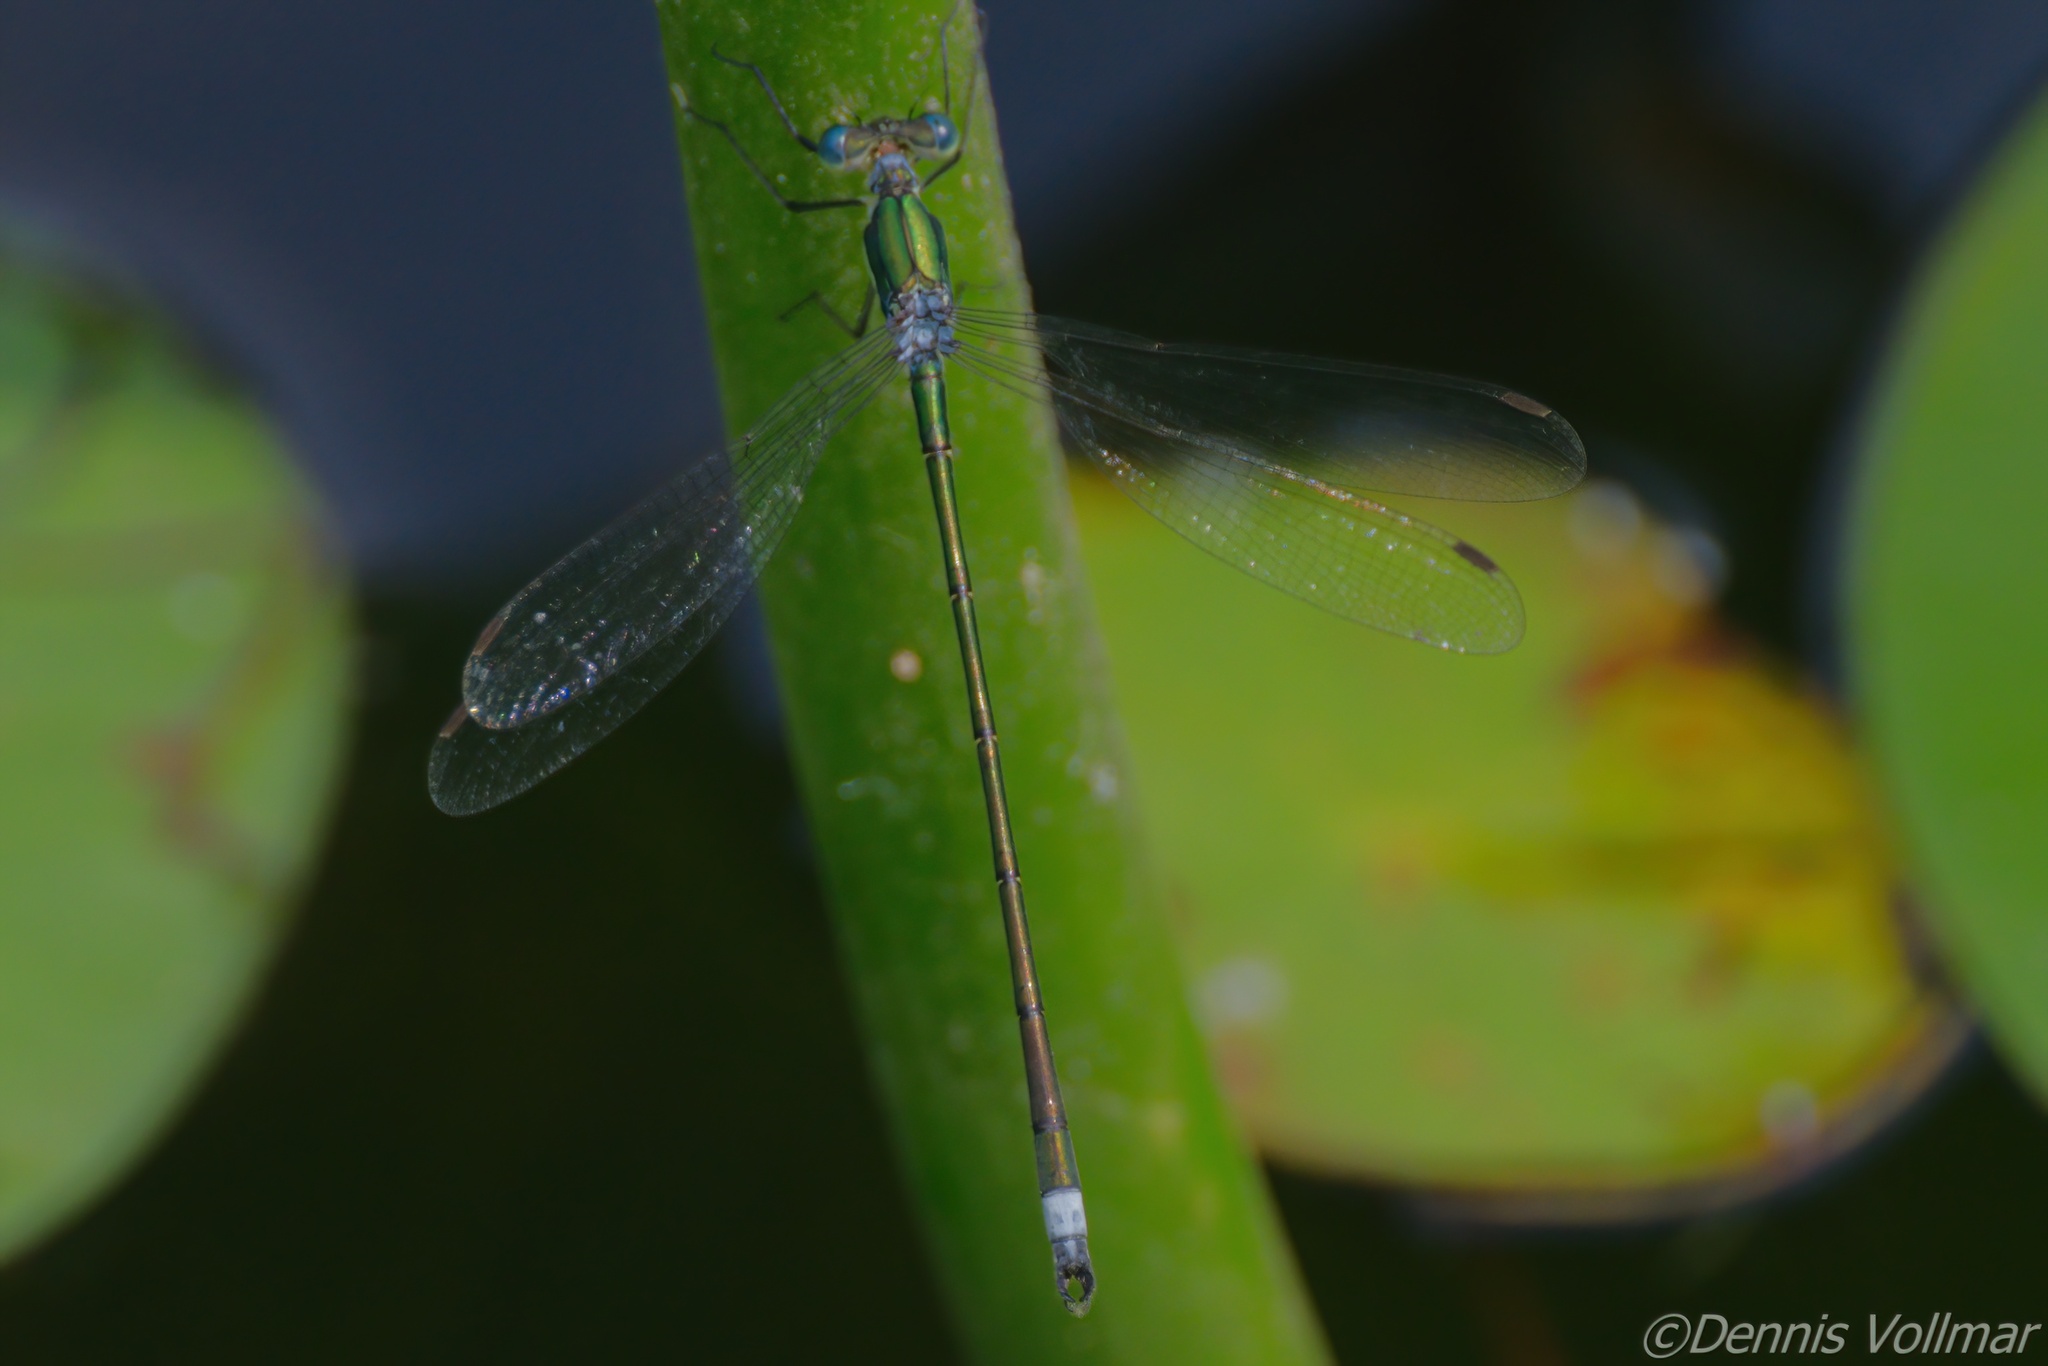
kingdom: Animalia
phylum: Arthropoda
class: Insecta
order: Odonata
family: Lestidae
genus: Lestes
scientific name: Lestes inaequalis
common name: Elegant spreadwing
